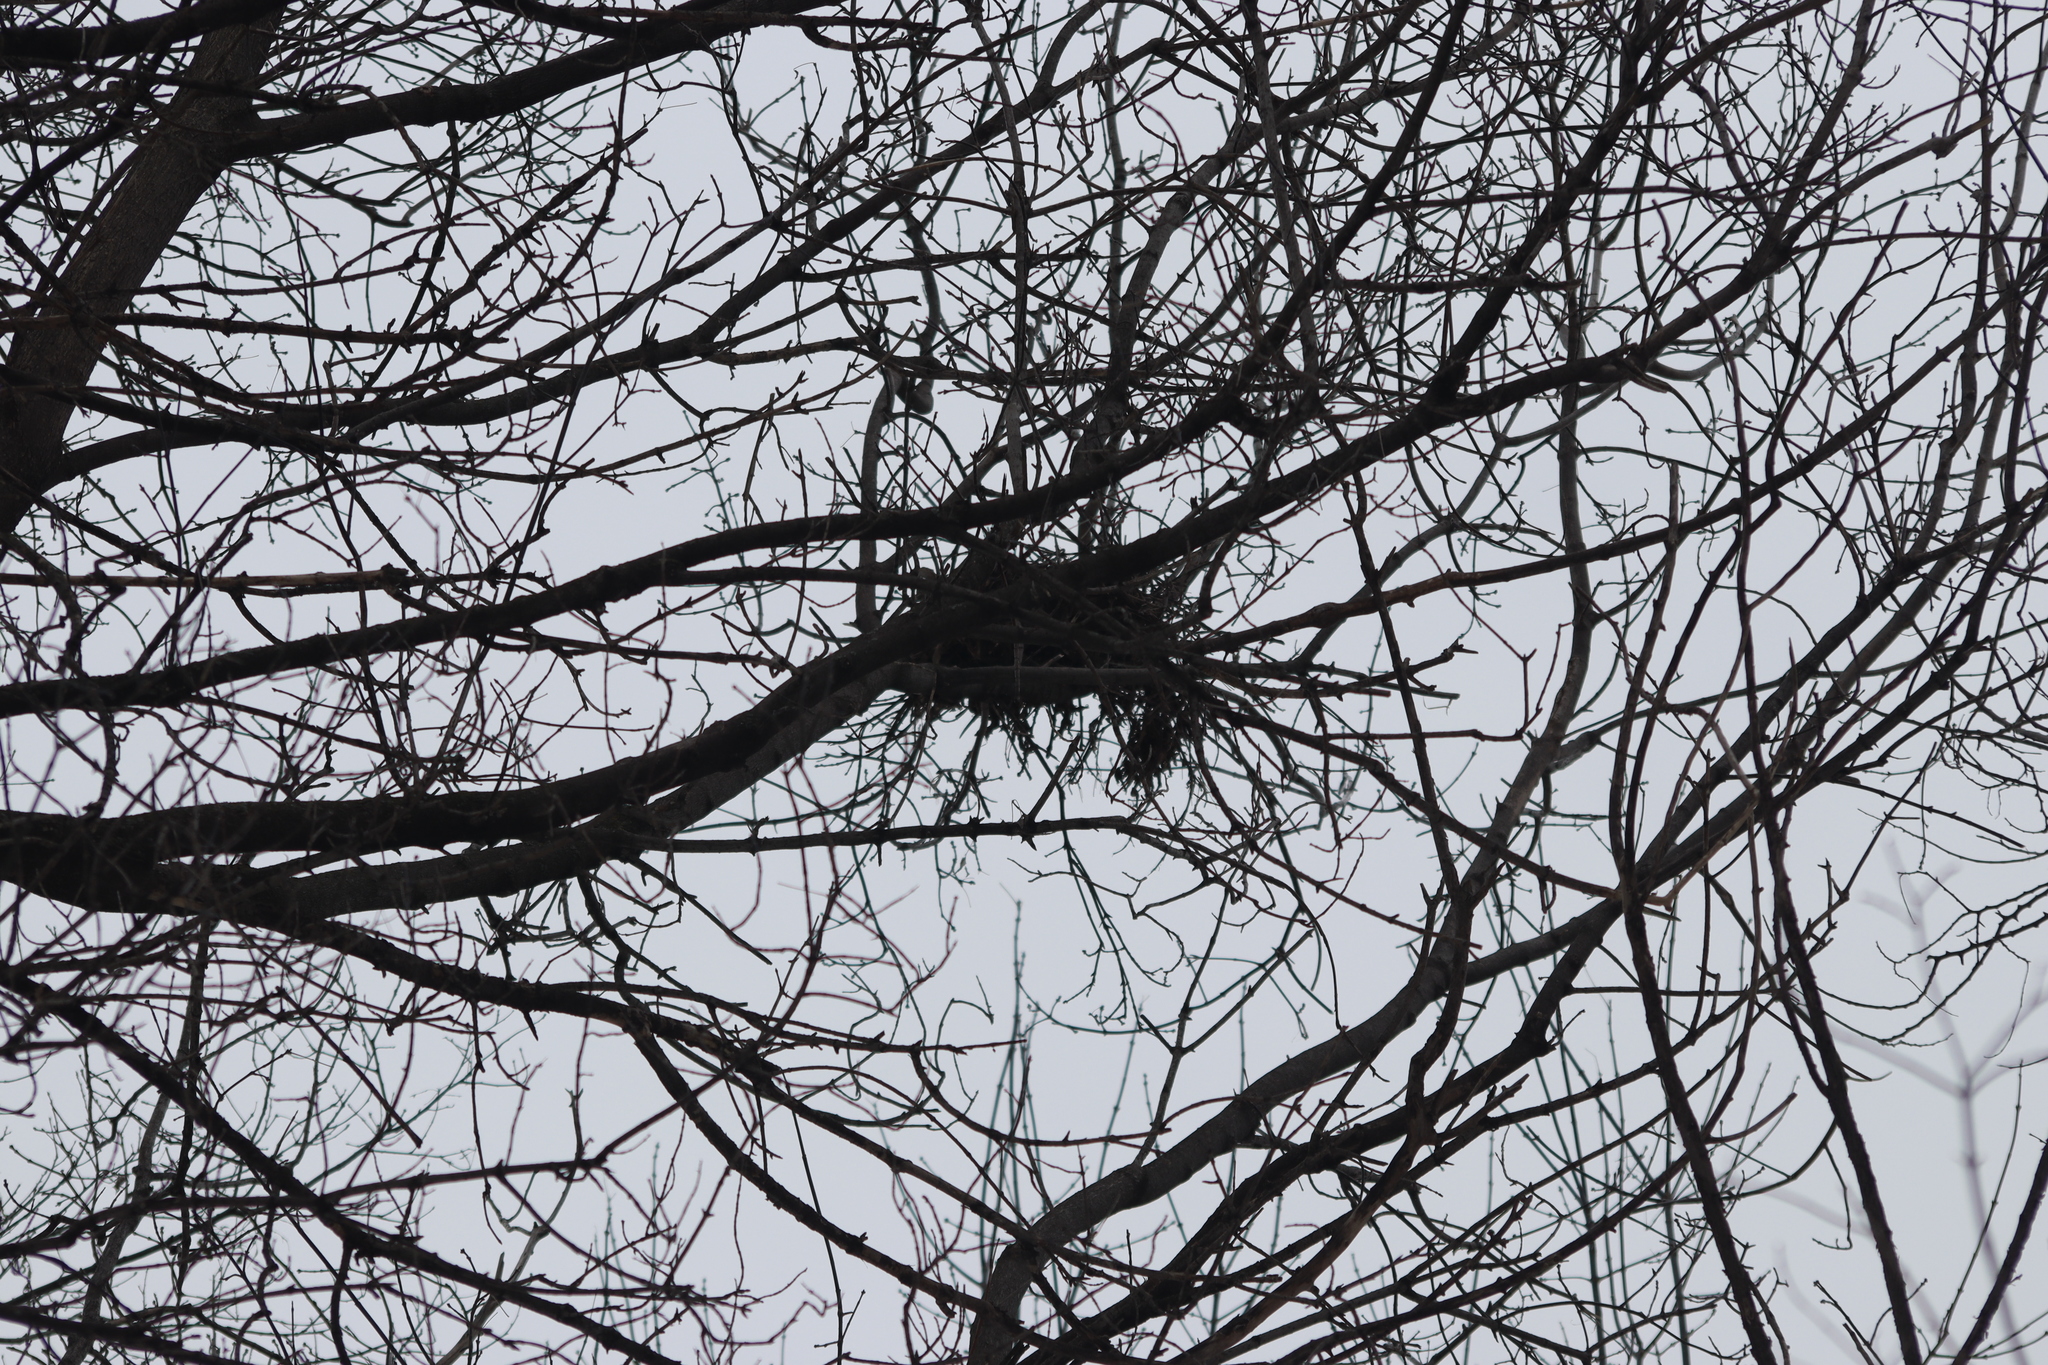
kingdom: Animalia
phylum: Chordata
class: Mammalia
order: Rodentia
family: Sciuridae
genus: Sciurus
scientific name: Sciurus carolinensis
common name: Eastern gray squirrel
